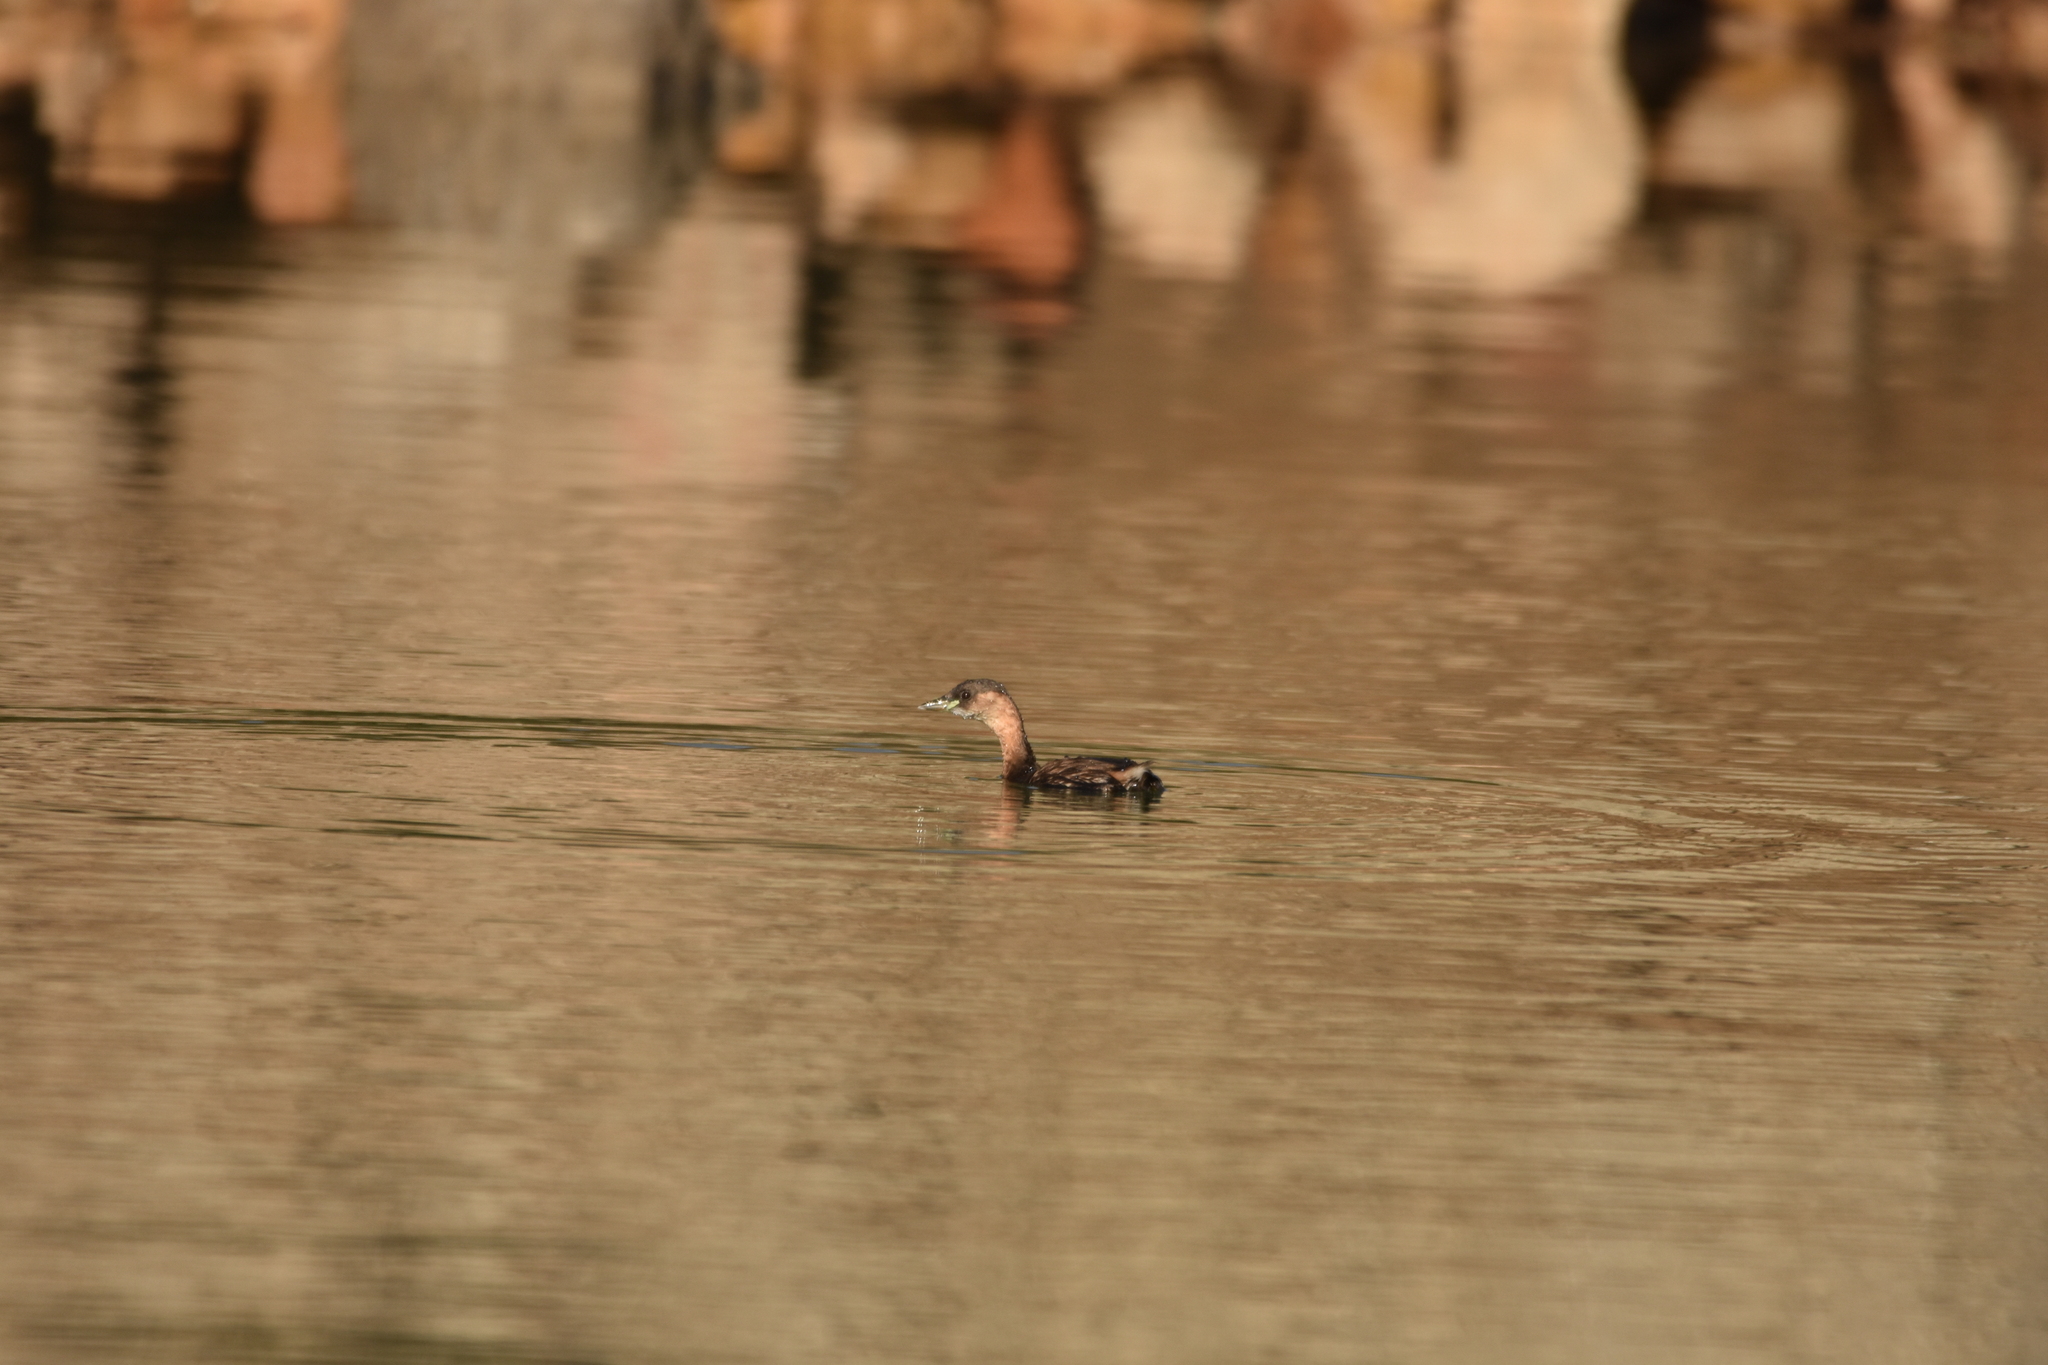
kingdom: Animalia
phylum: Chordata
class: Aves
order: Podicipediformes
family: Podicipedidae
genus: Tachybaptus
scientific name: Tachybaptus ruficollis
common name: Little grebe
